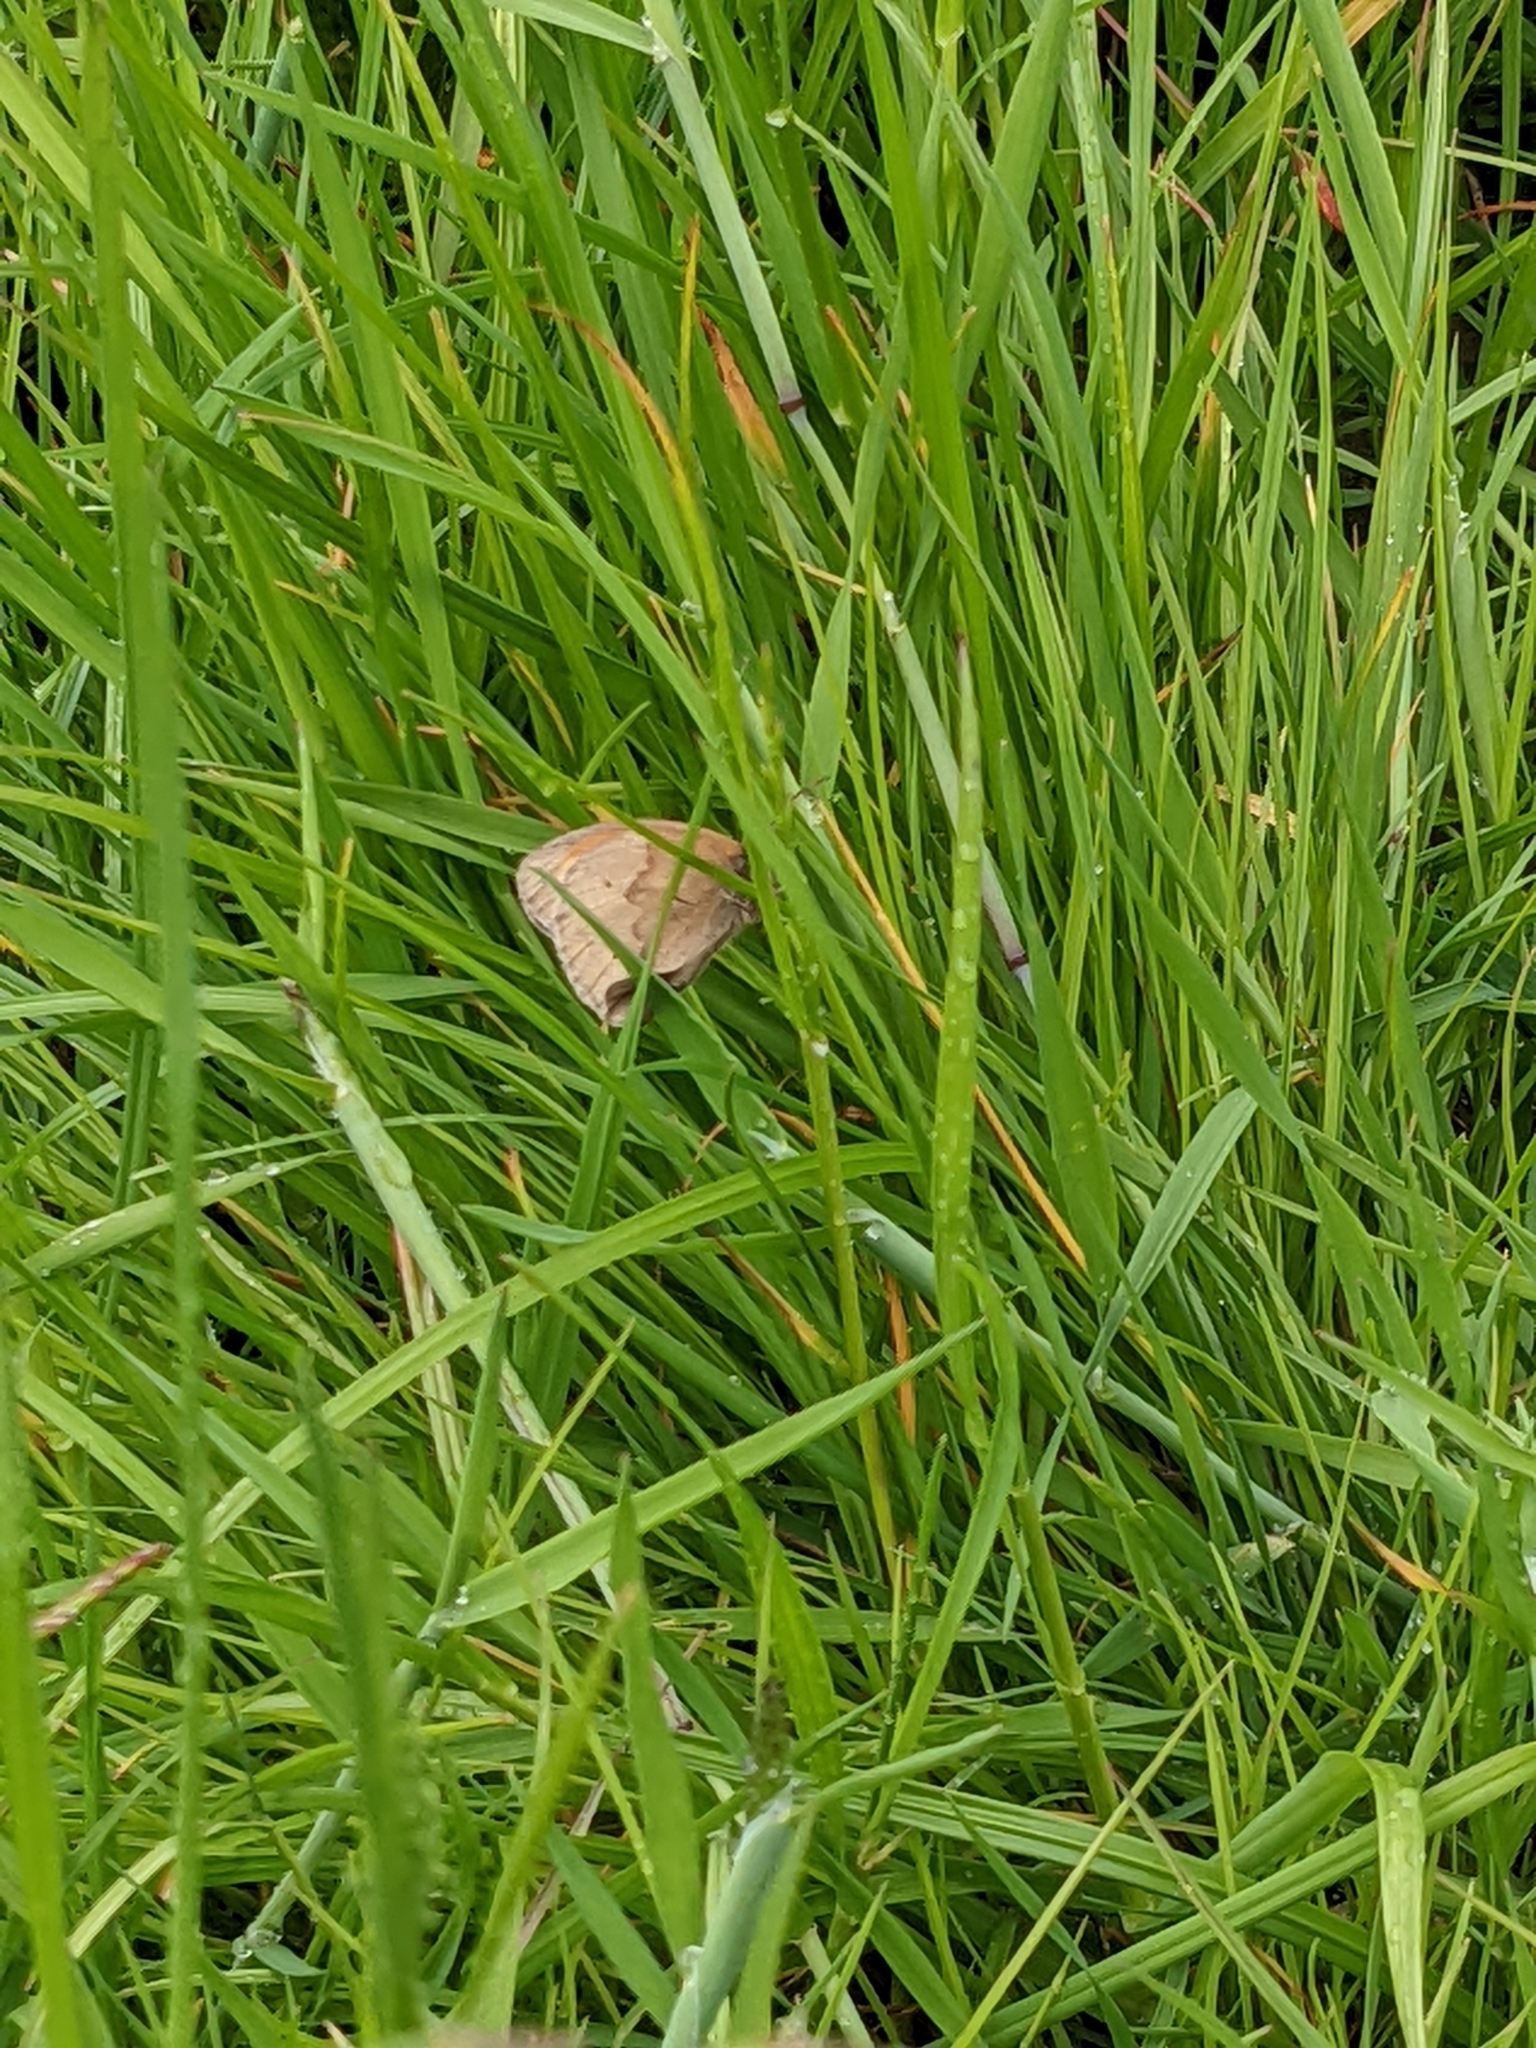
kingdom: Animalia
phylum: Arthropoda
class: Insecta
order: Lepidoptera
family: Nymphalidae
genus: Maniola
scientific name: Maniola jurtina
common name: Meadow brown
